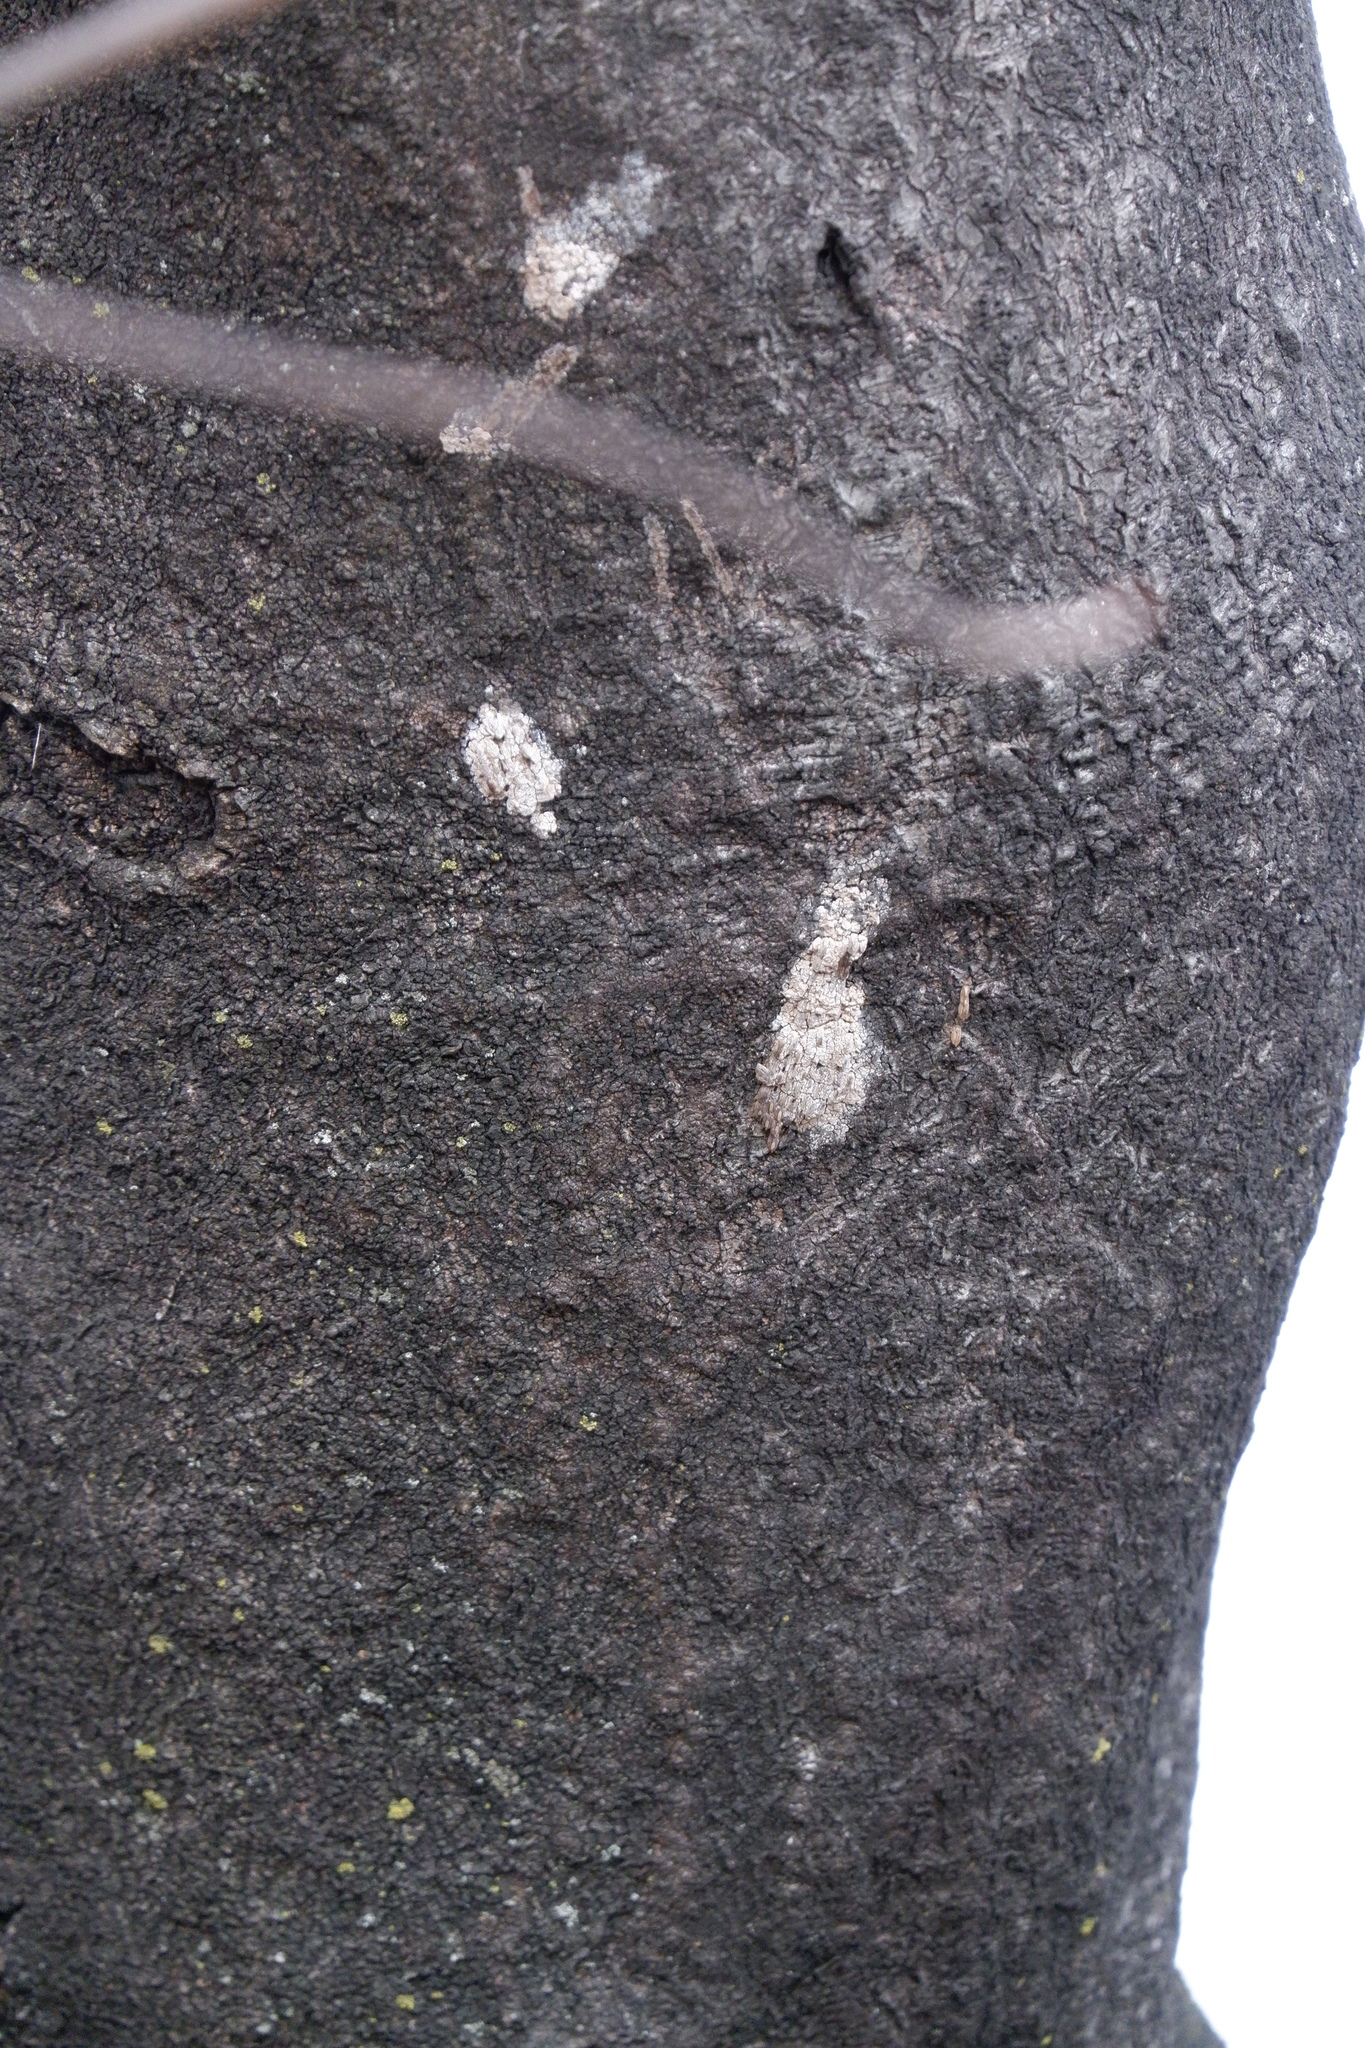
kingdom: Animalia
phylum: Arthropoda
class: Insecta
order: Hemiptera
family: Fulgoridae
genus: Lycorma
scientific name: Lycorma delicatula
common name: Spotted lanternfly
